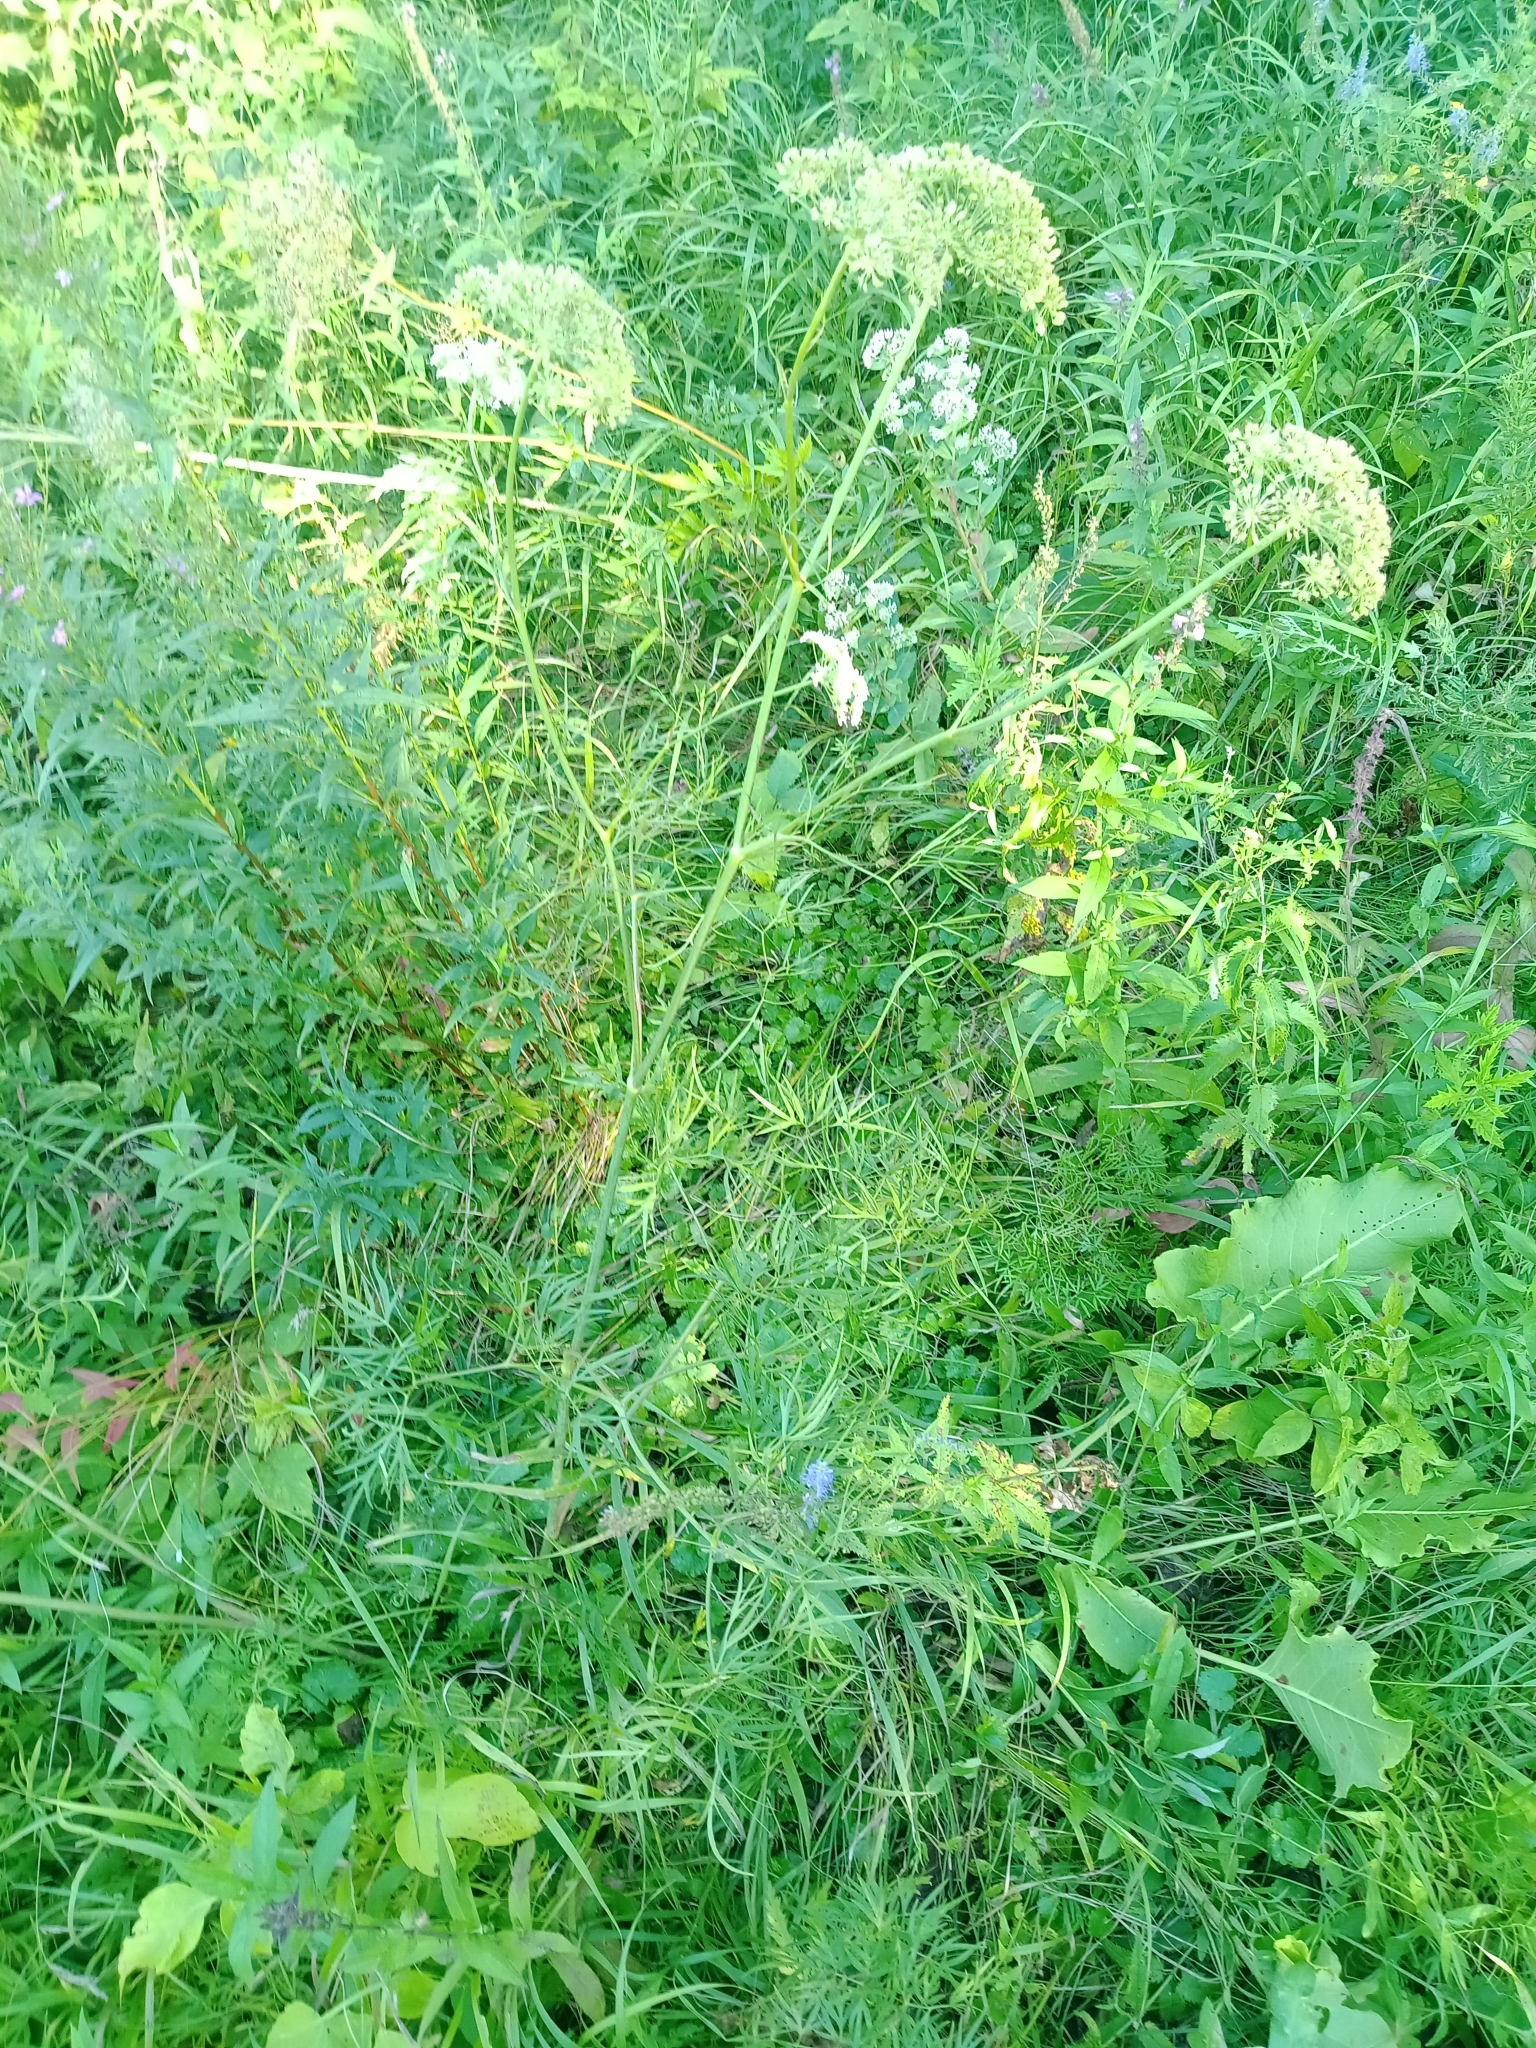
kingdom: Plantae
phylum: Tracheophyta
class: Magnoliopsida
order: Apiales
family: Apiaceae
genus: Cenolophium
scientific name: Cenolophium fischeri
